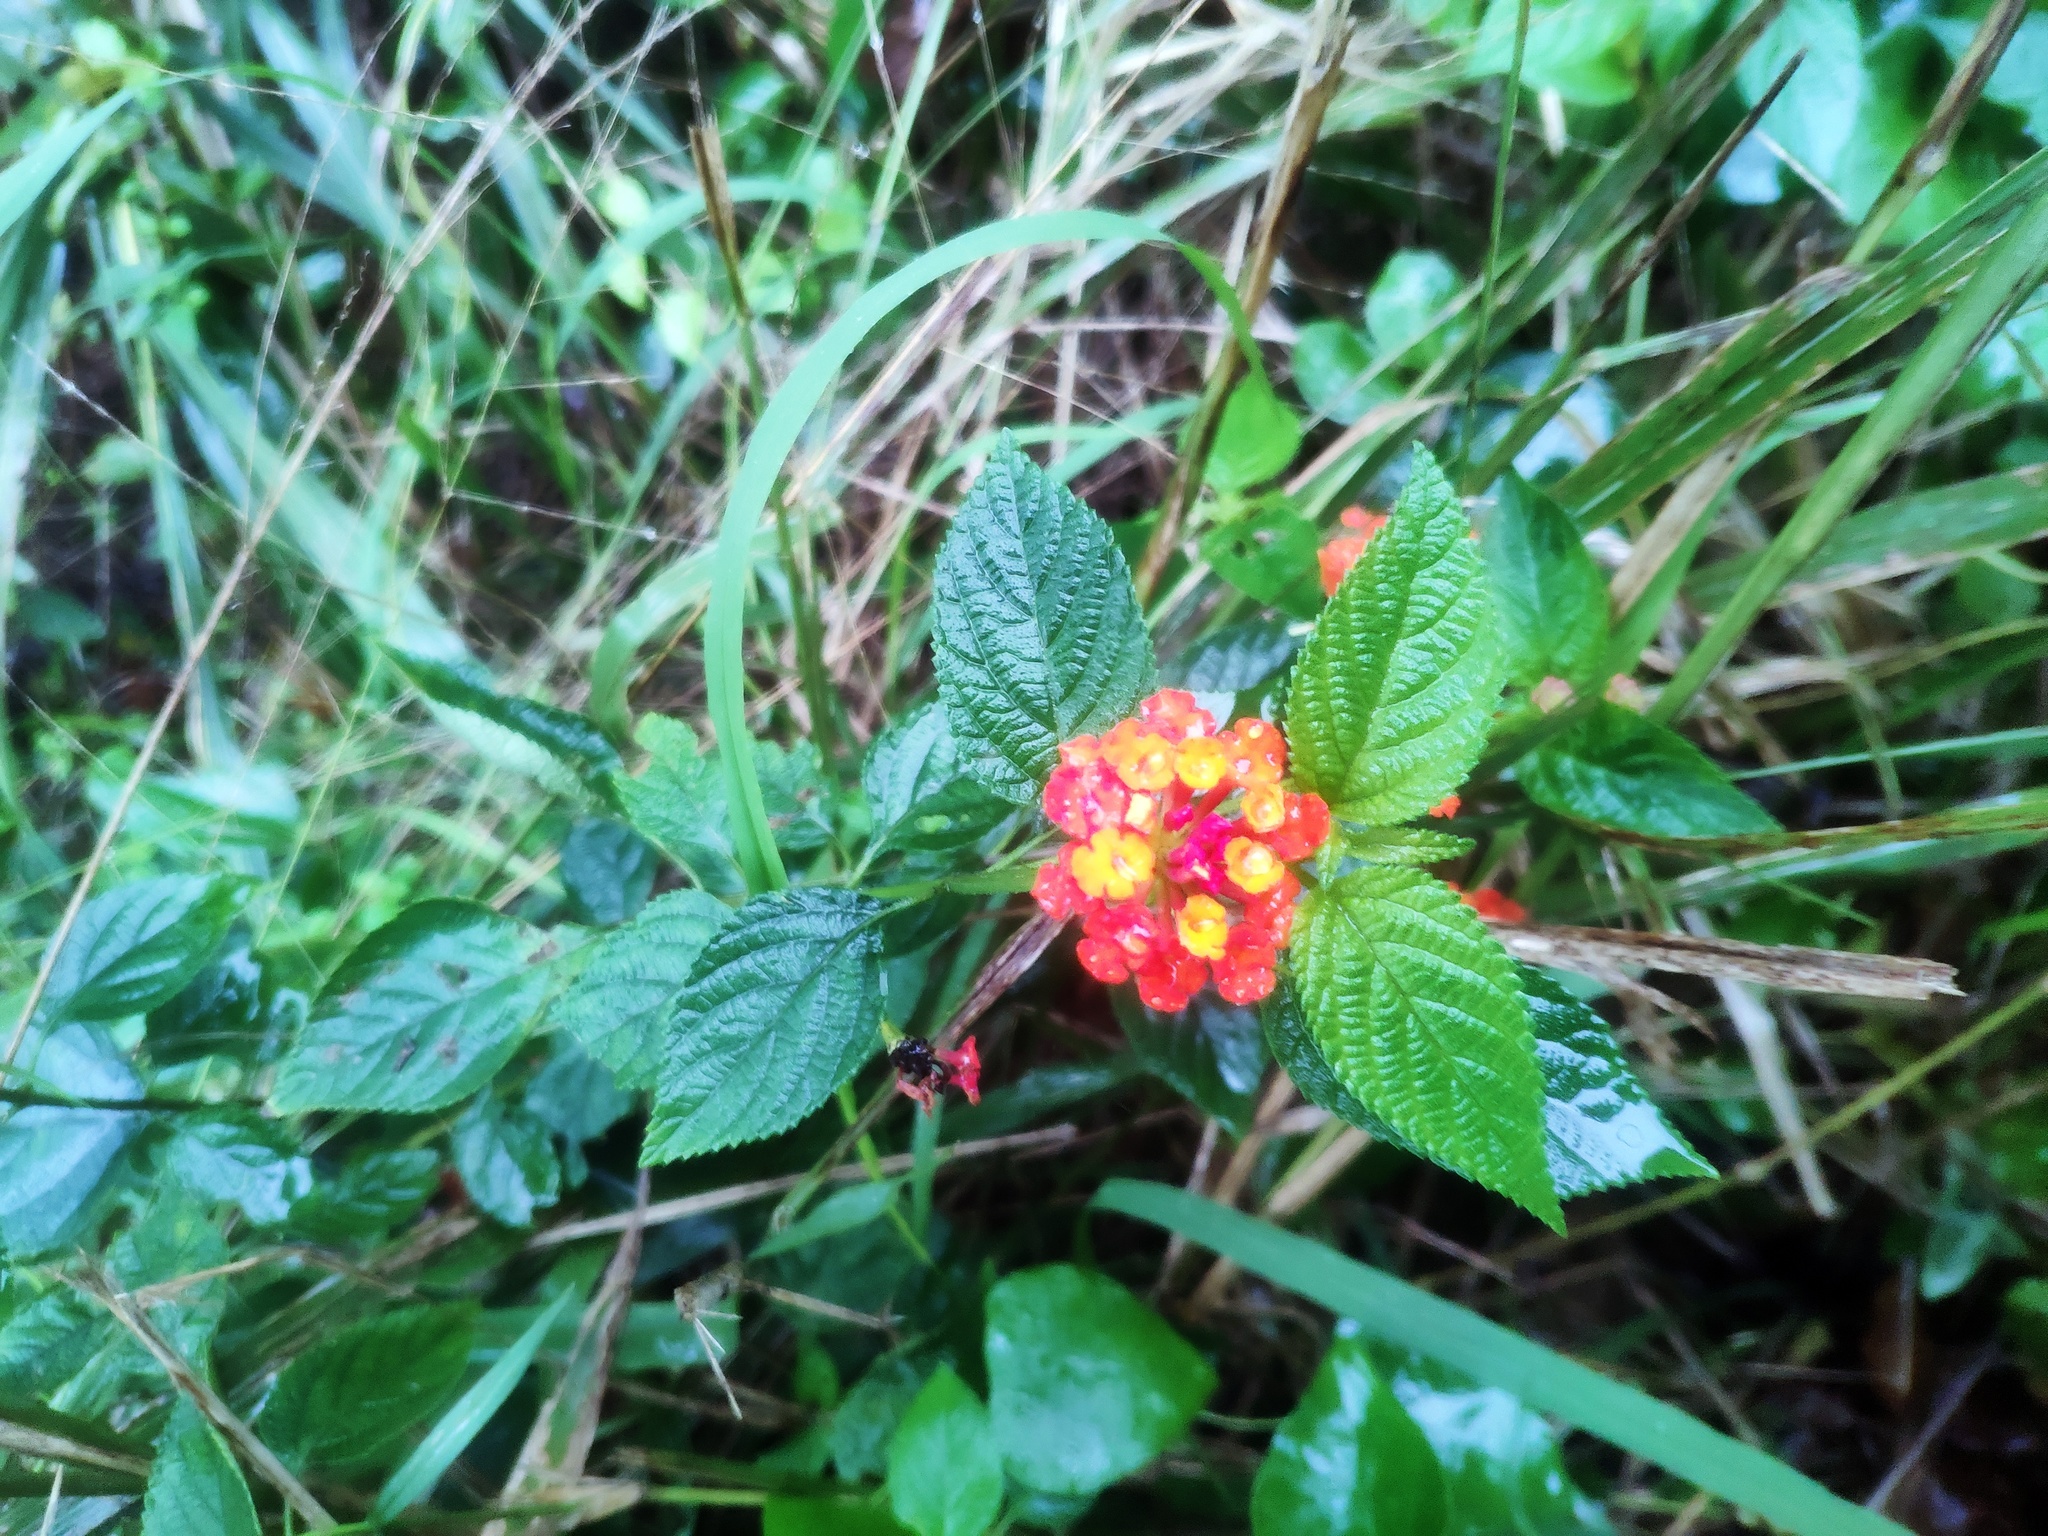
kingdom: Plantae
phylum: Tracheophyta
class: Magnoliopsida
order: Lamiales
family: Verbenaceae
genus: Lantana
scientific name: Lantana camara
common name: Lantana
